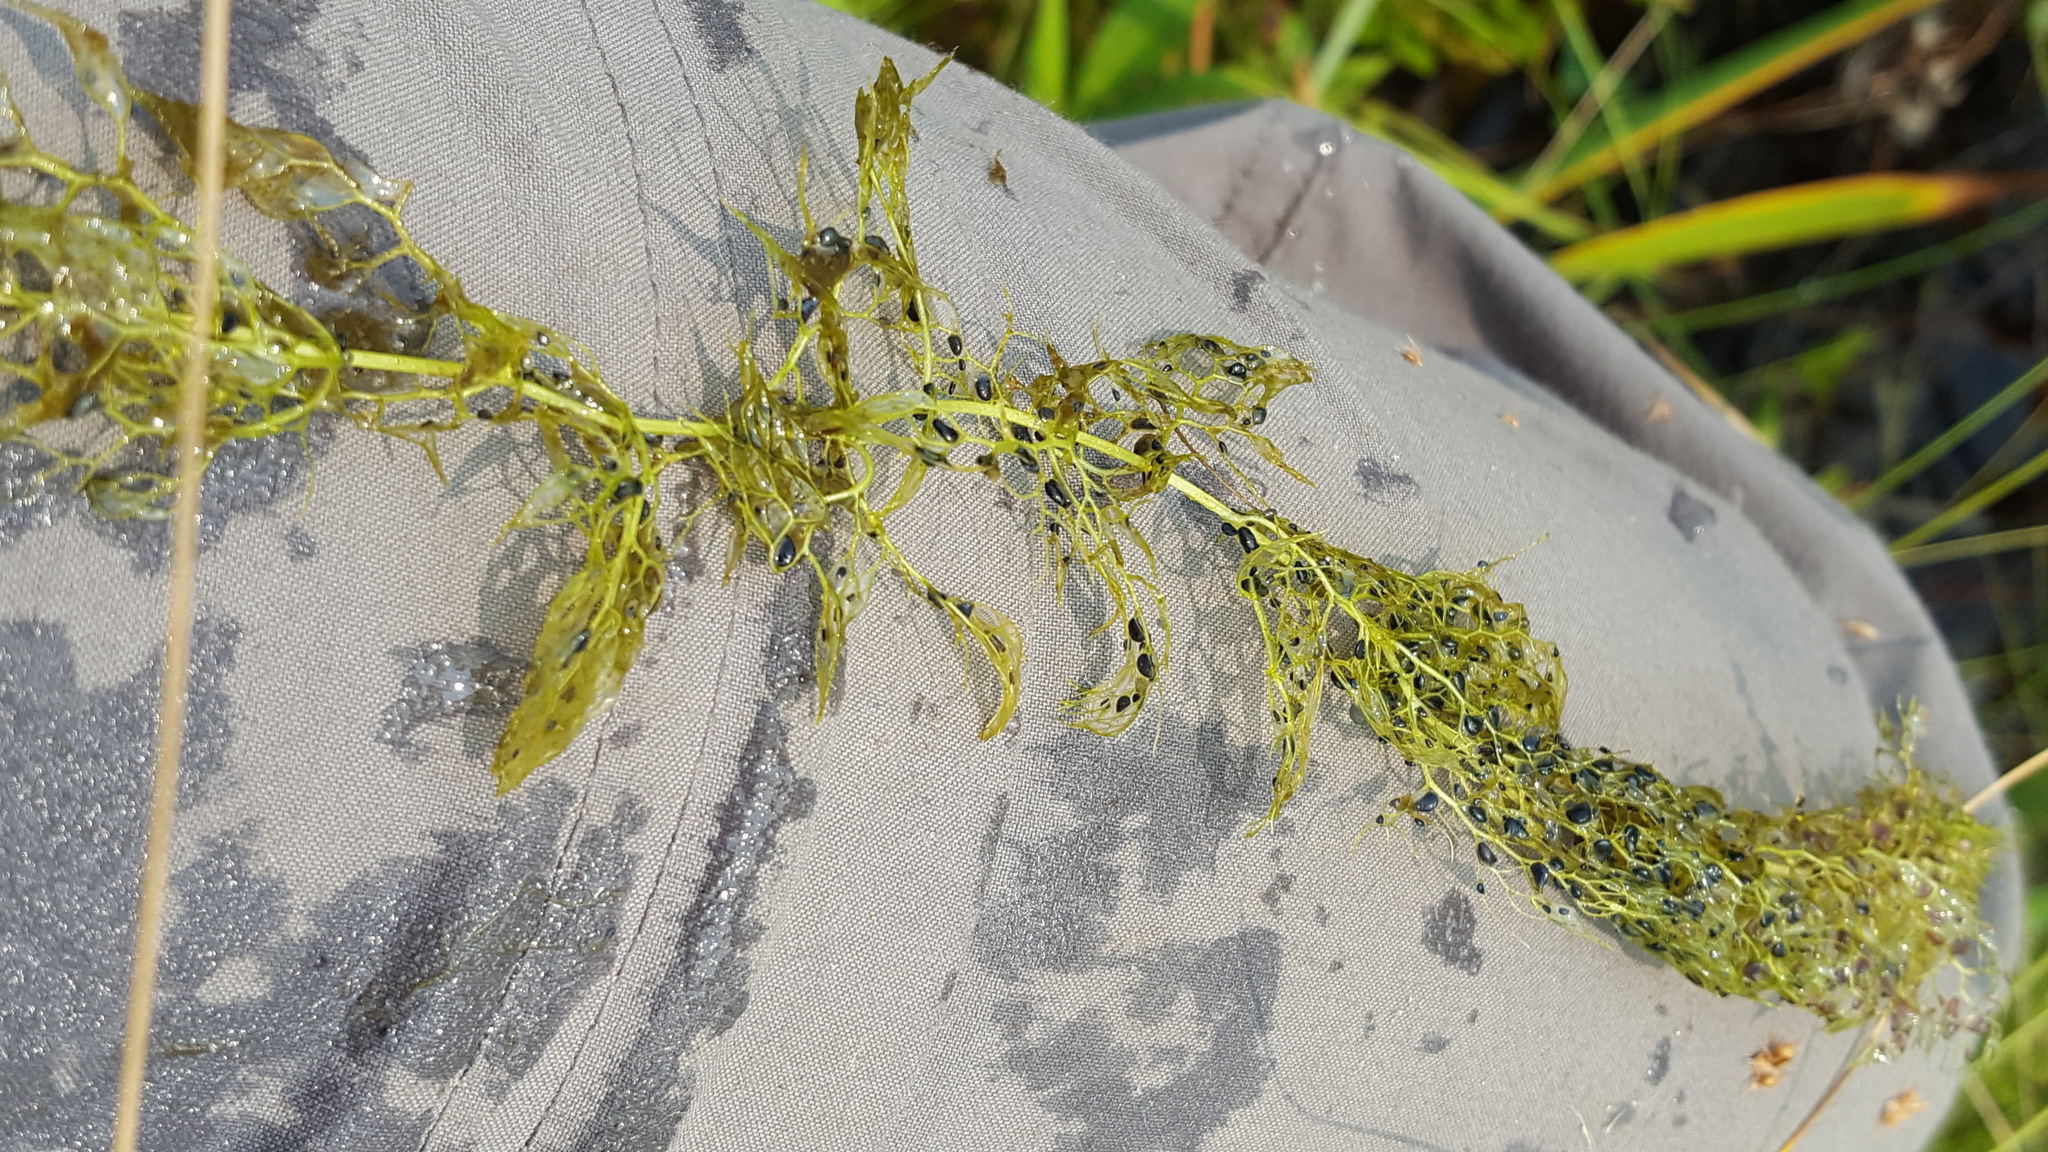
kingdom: Plantae
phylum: Tracheophyta
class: Magnoliopsida
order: Lamiales
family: Lentibulariaceae
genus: Utricularia
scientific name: Utricularia macrorhiza
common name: Common bladderwort
